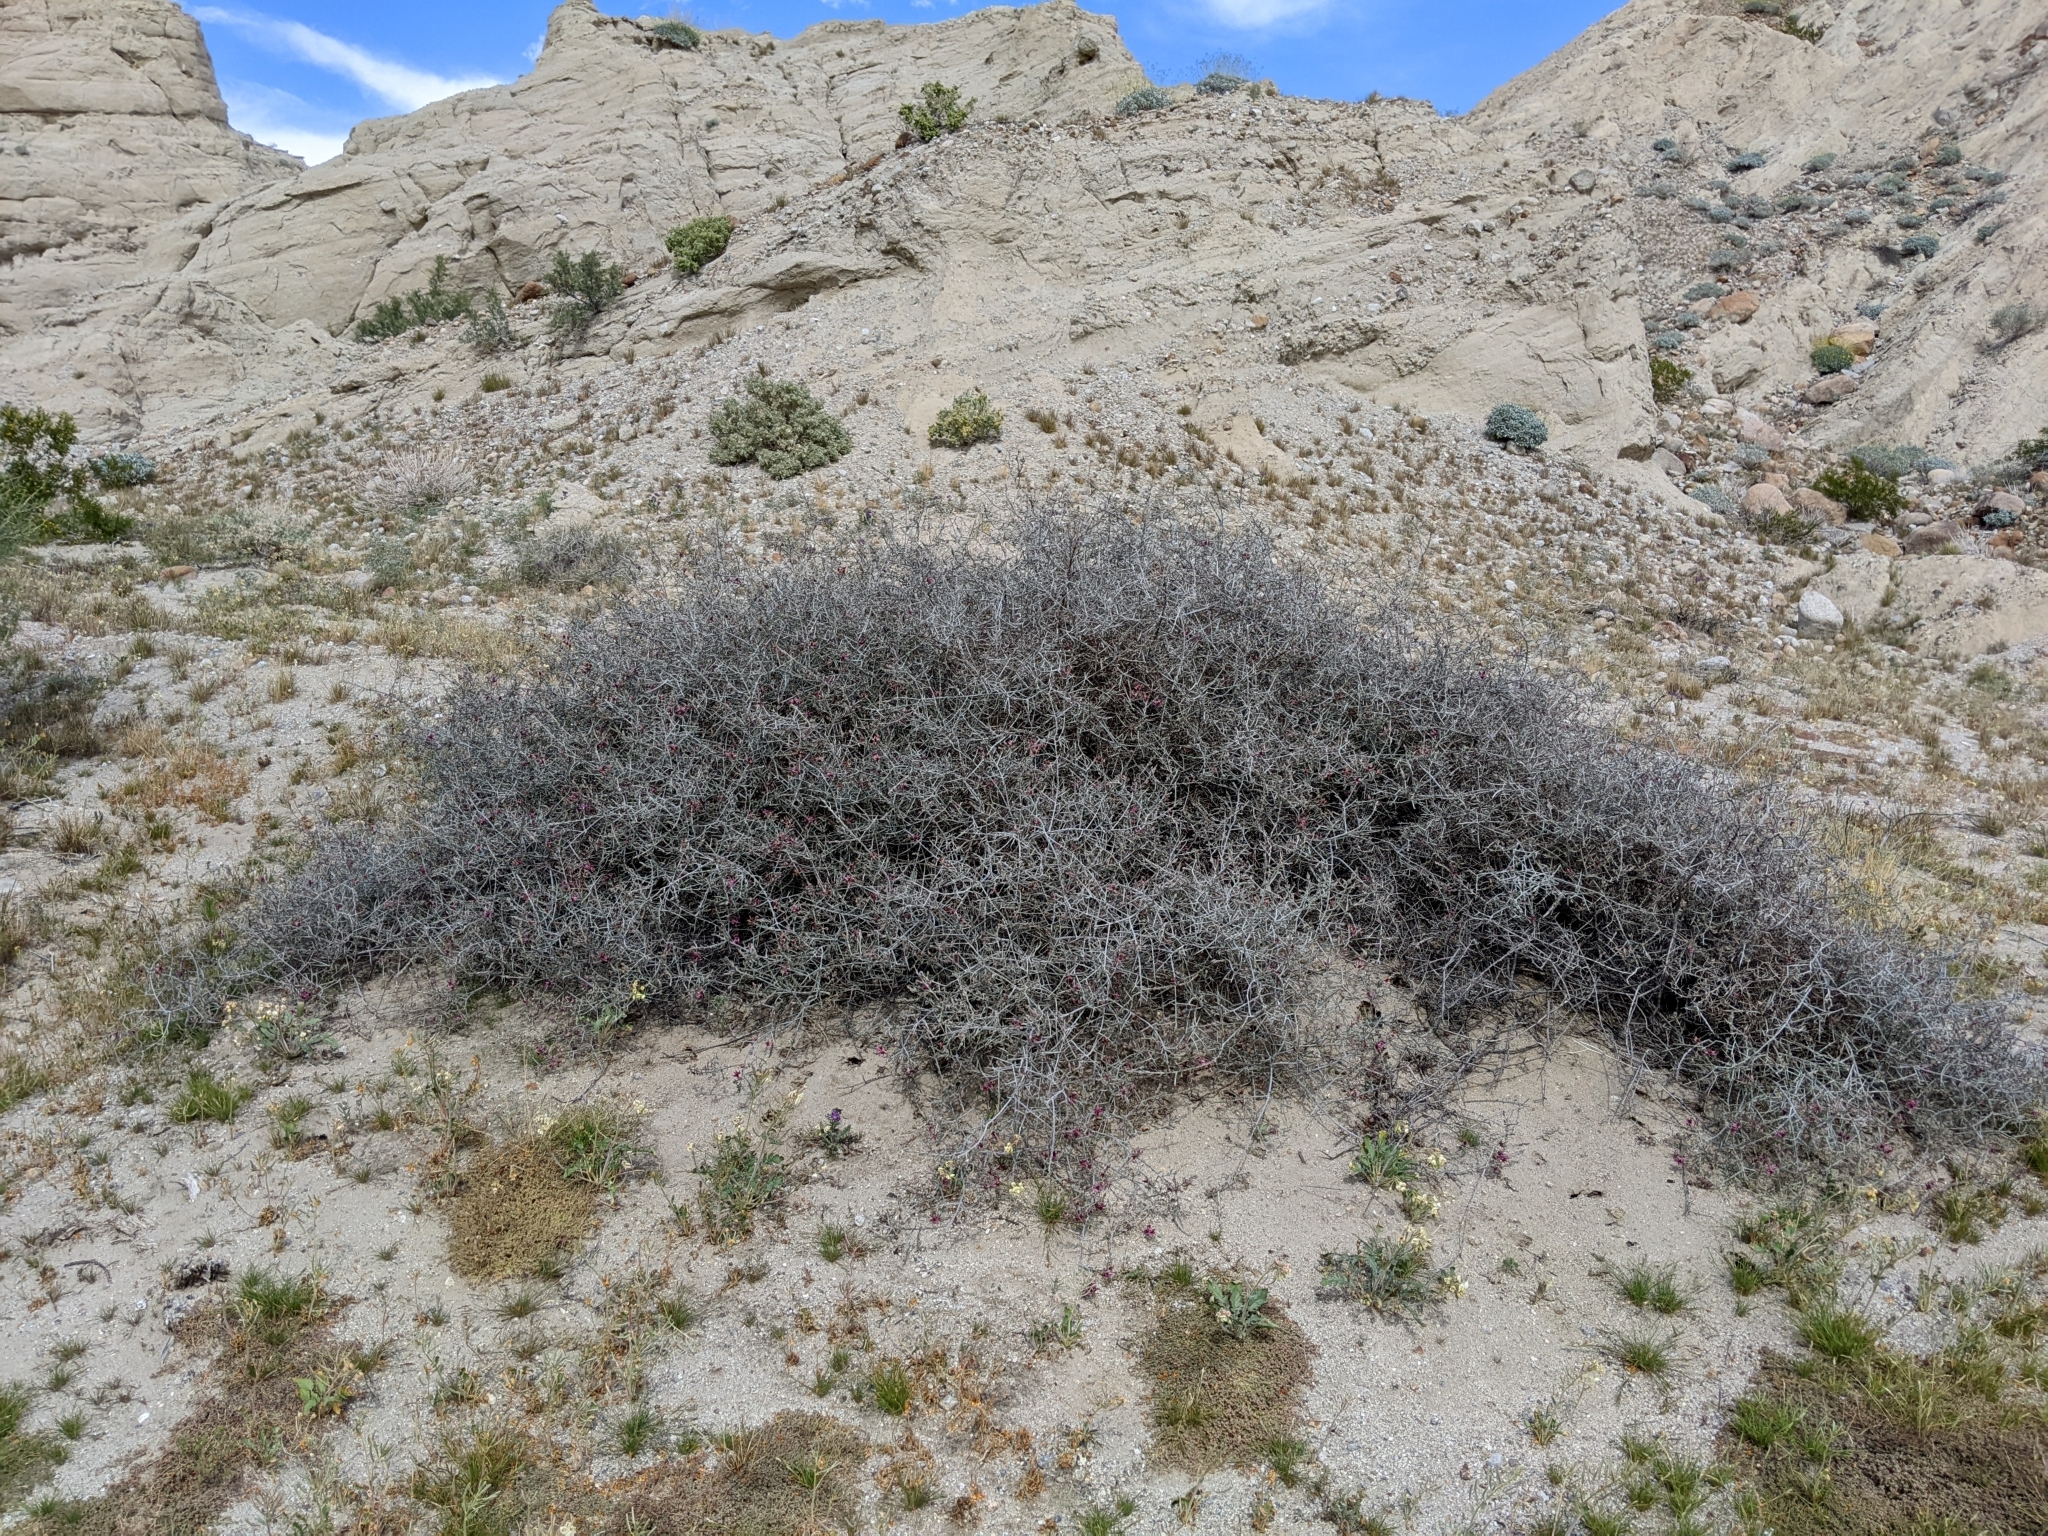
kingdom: Plantae
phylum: Tracheophyta
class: Magnoliopsida
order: Zygophyllales
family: Krameriaceae
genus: Krameria
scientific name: Krameria bicolor
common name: White ratany
